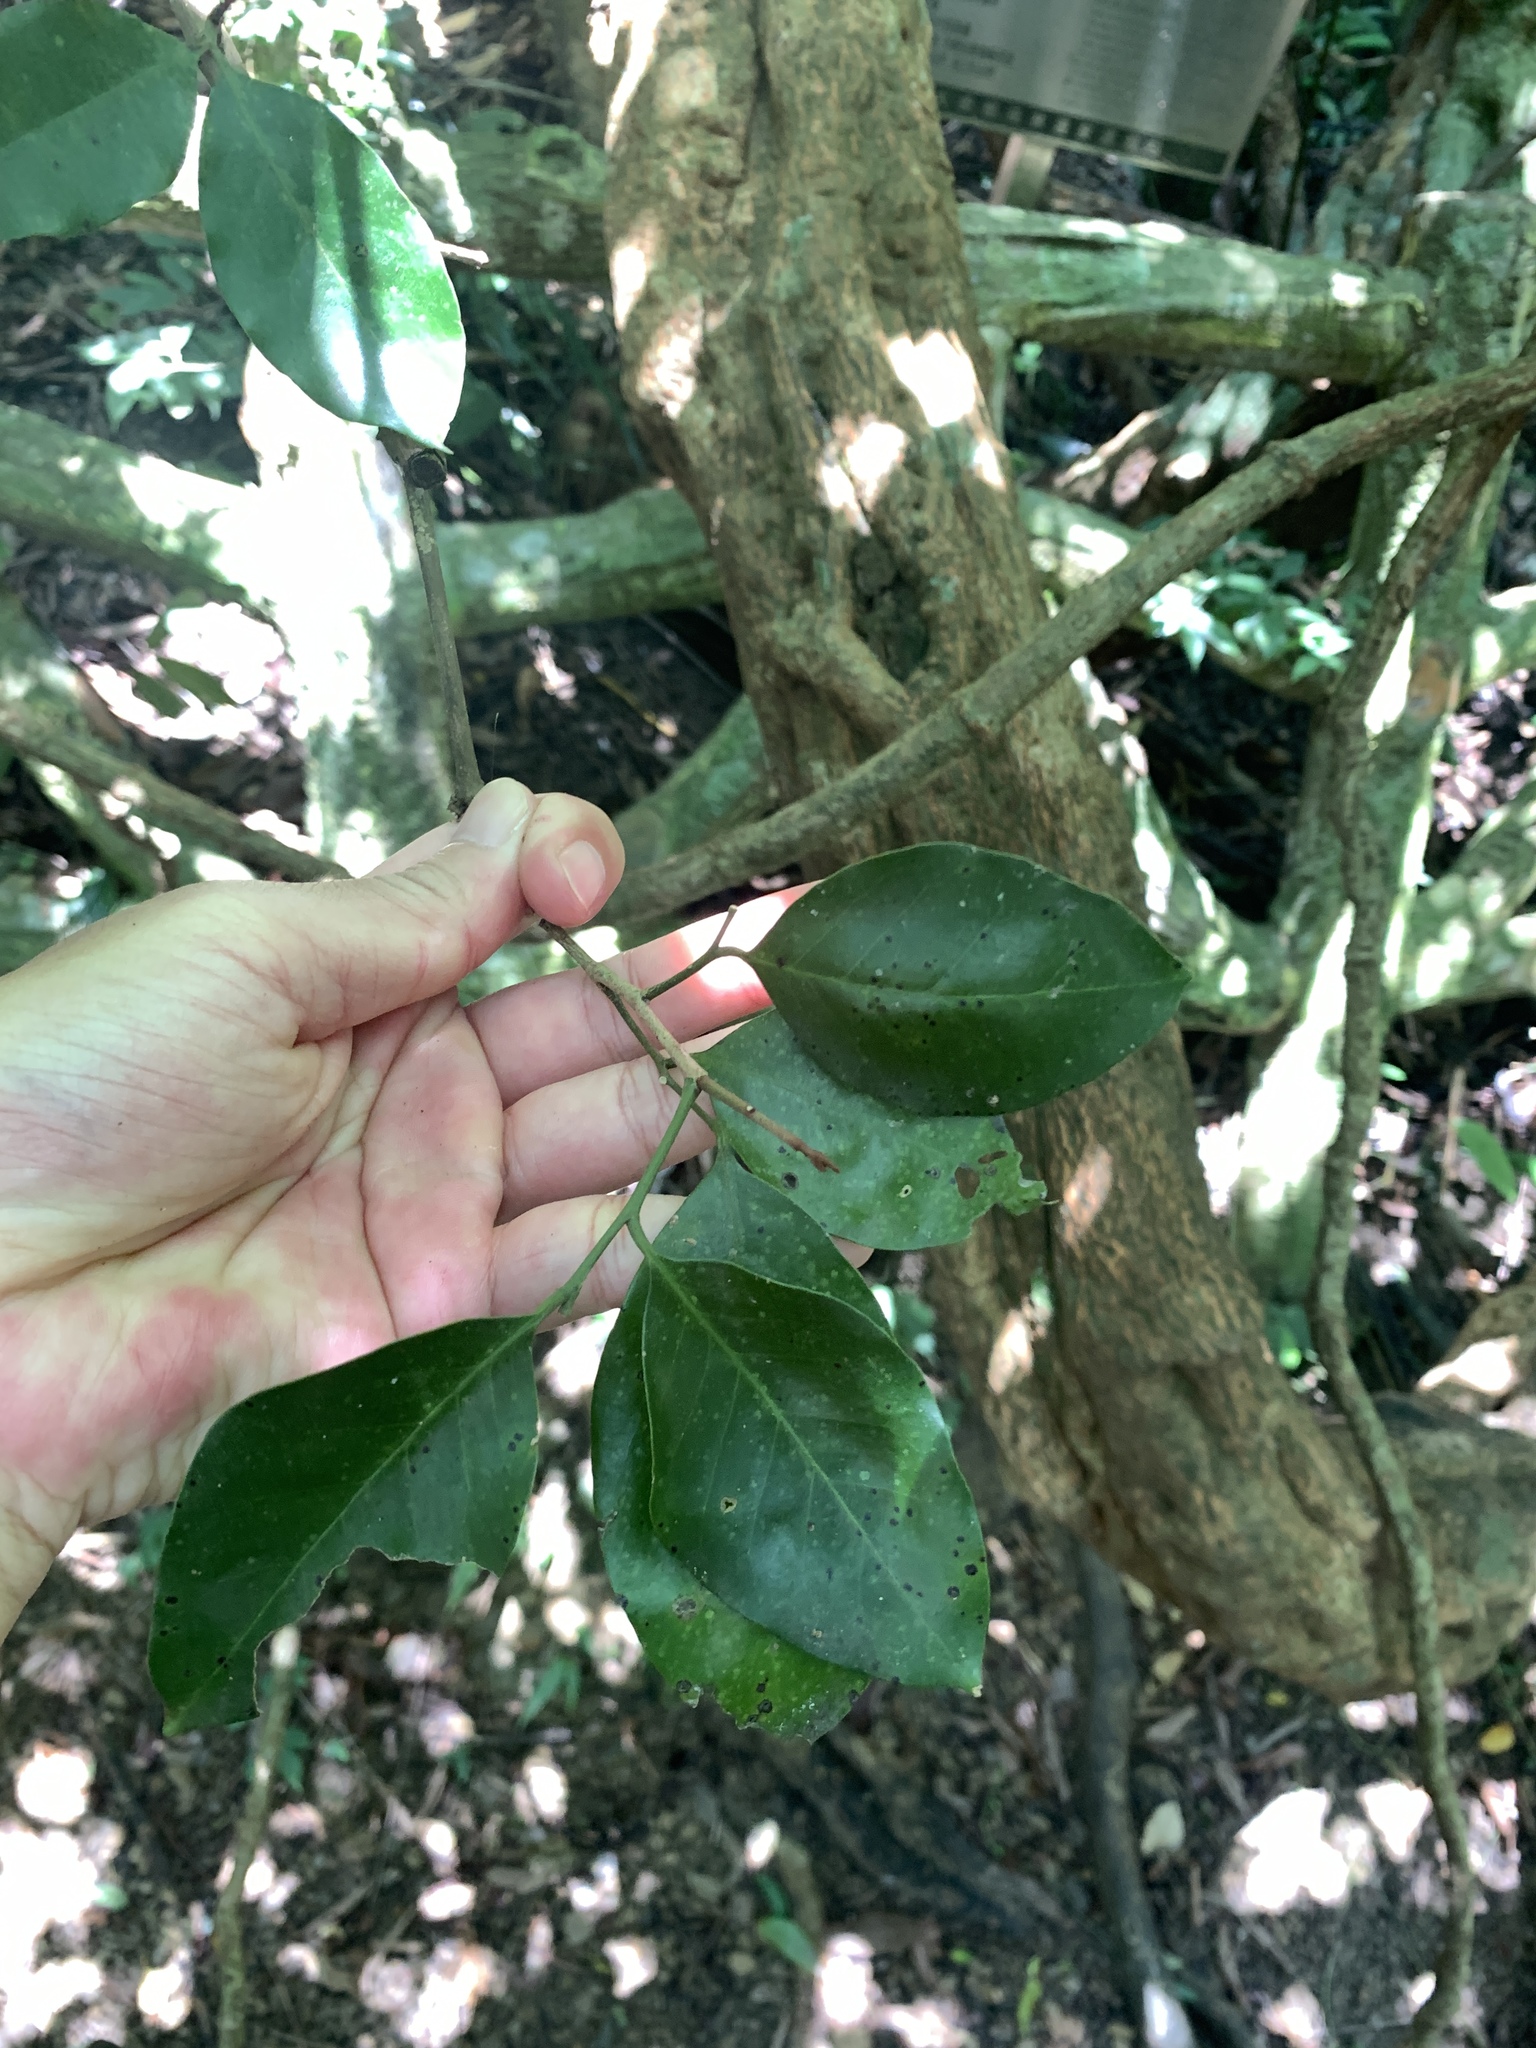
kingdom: Plantae
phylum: Tracheophyta
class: Magnoliopsida
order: Sapindales
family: Rutaceae
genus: Glycosmis
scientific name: Glycosmis parviflora
